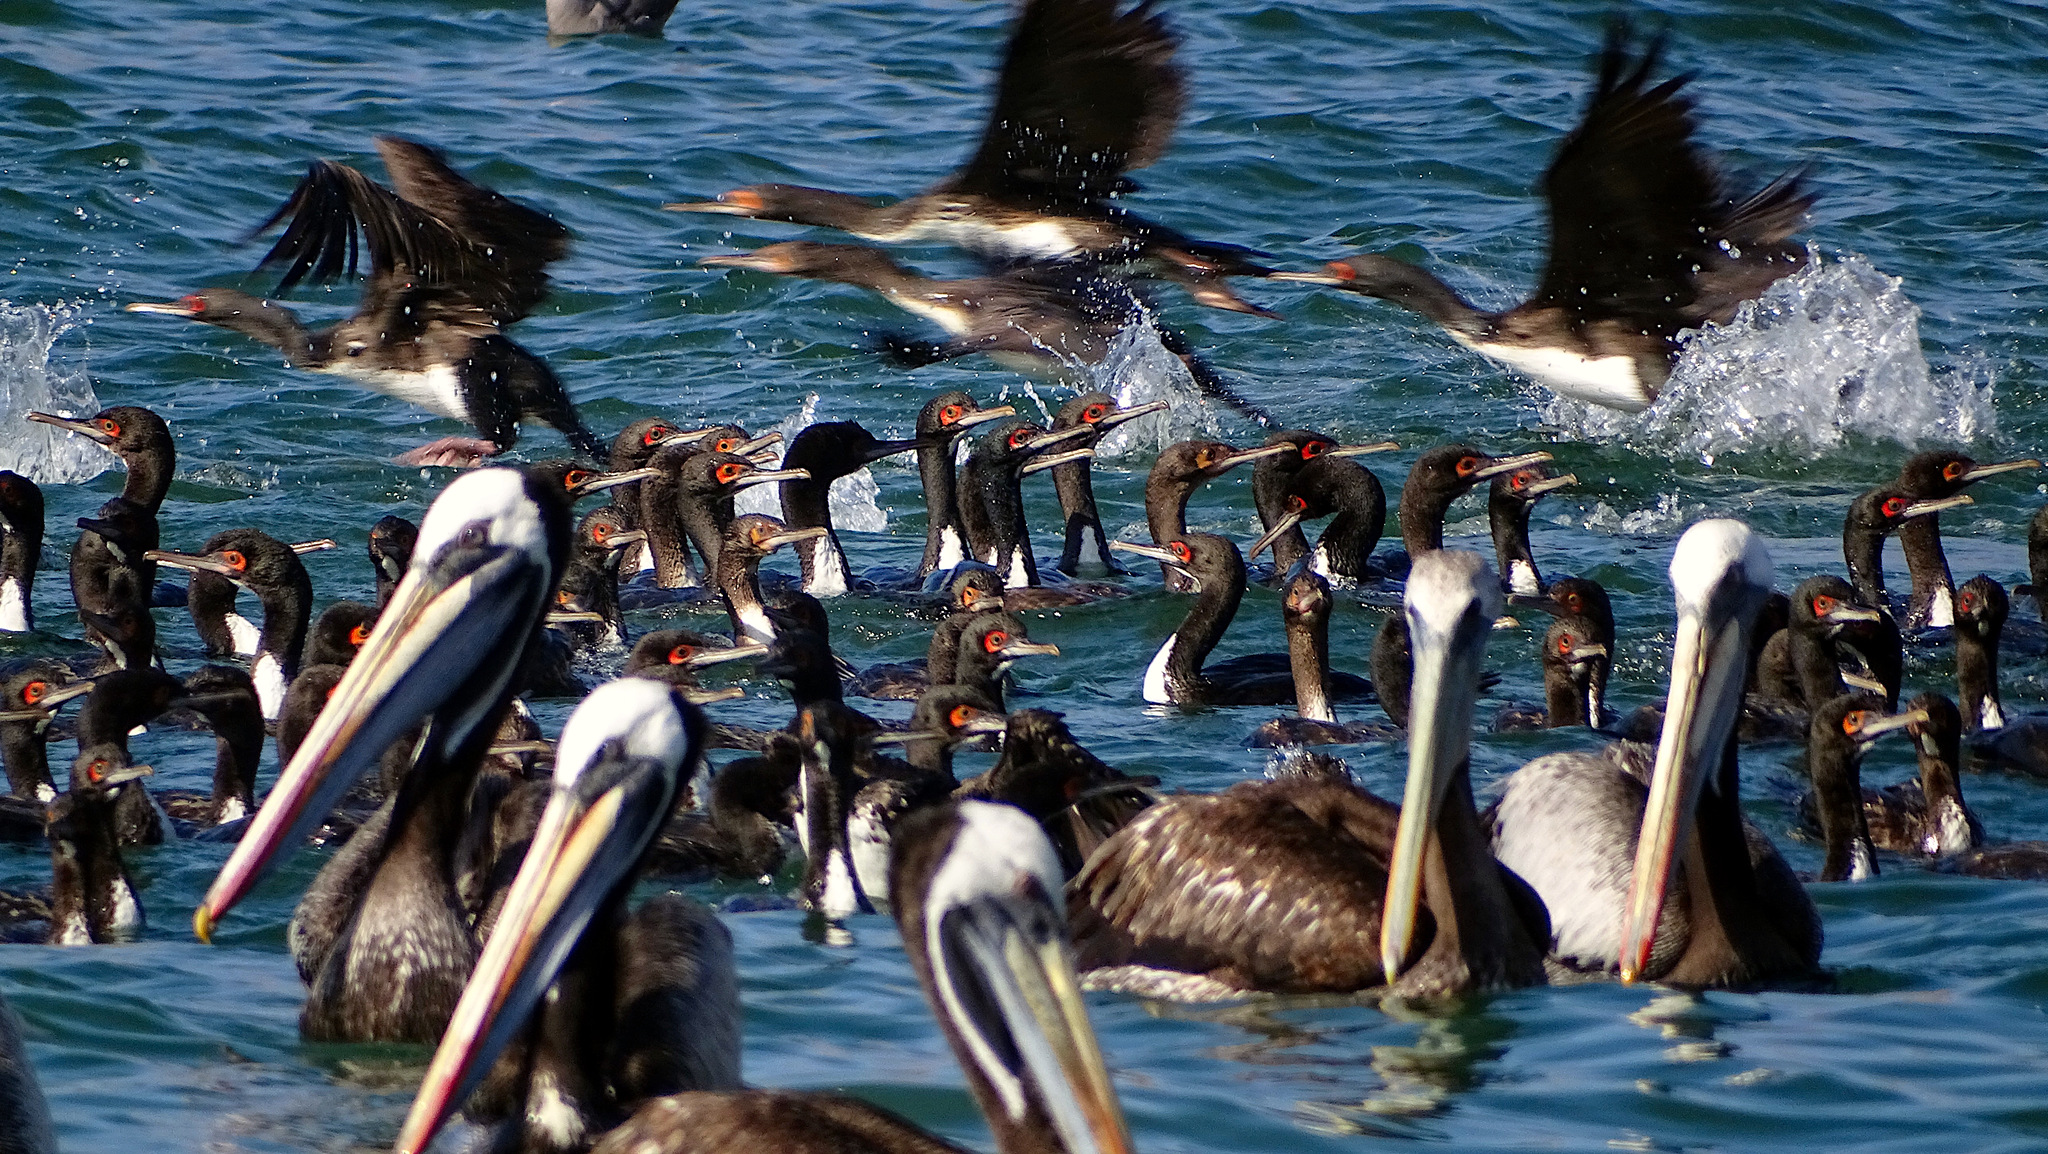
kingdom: Animalia
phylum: Chordata
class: Aves
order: Pelecaniformes
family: Pelecanidae
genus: Pelecanus
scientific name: Pelecanus thagus
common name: Peruvian pelican
